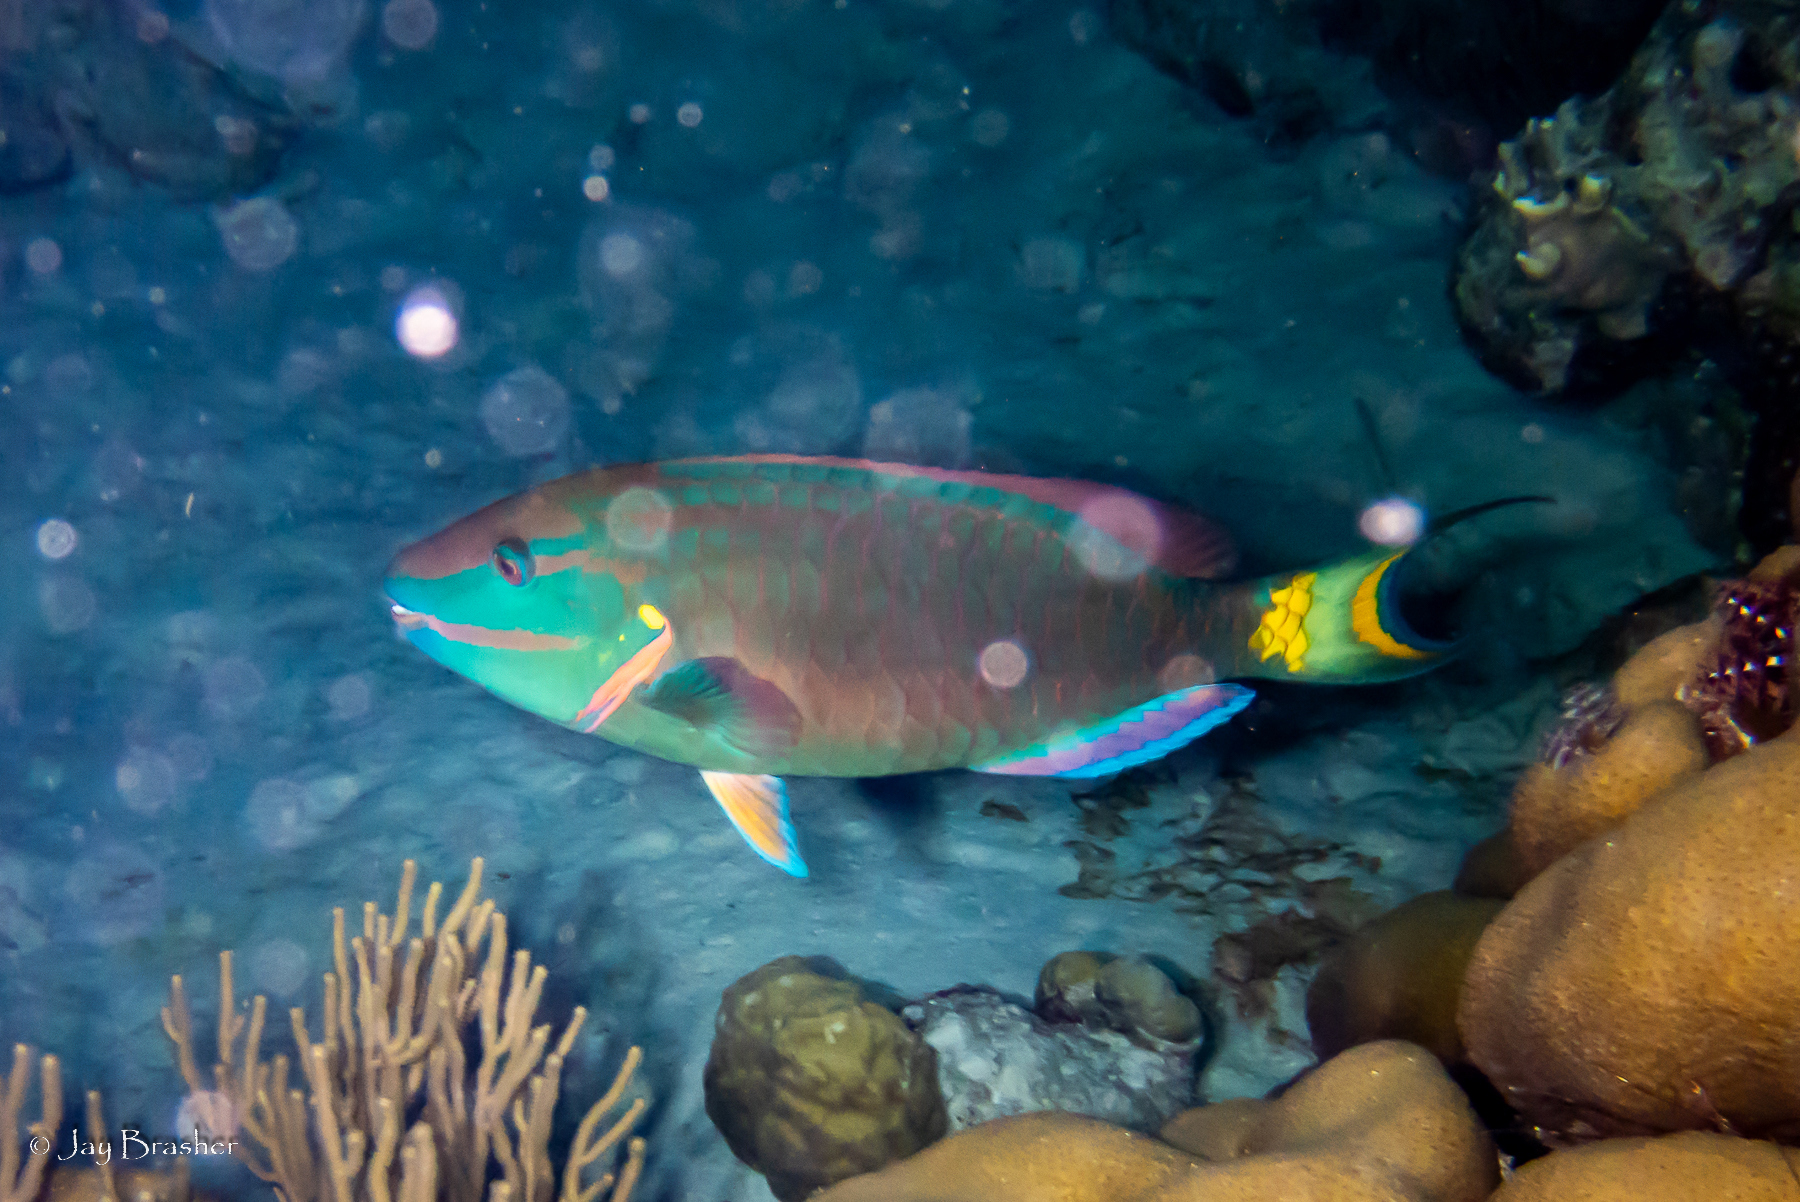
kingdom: Animalia
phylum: Chordata
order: Perciformes
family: Scaridae
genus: Sparisoma
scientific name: Sparisoma viride
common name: Stoplight parrotfish
